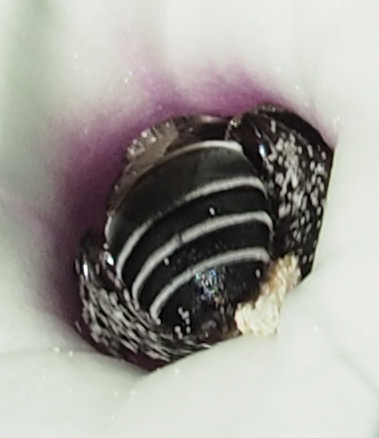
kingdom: Animalia
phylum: Arthropoda
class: Insecta
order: Hymenoptera
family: Apidae
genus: Melitoma
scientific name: Melitoma taurea
